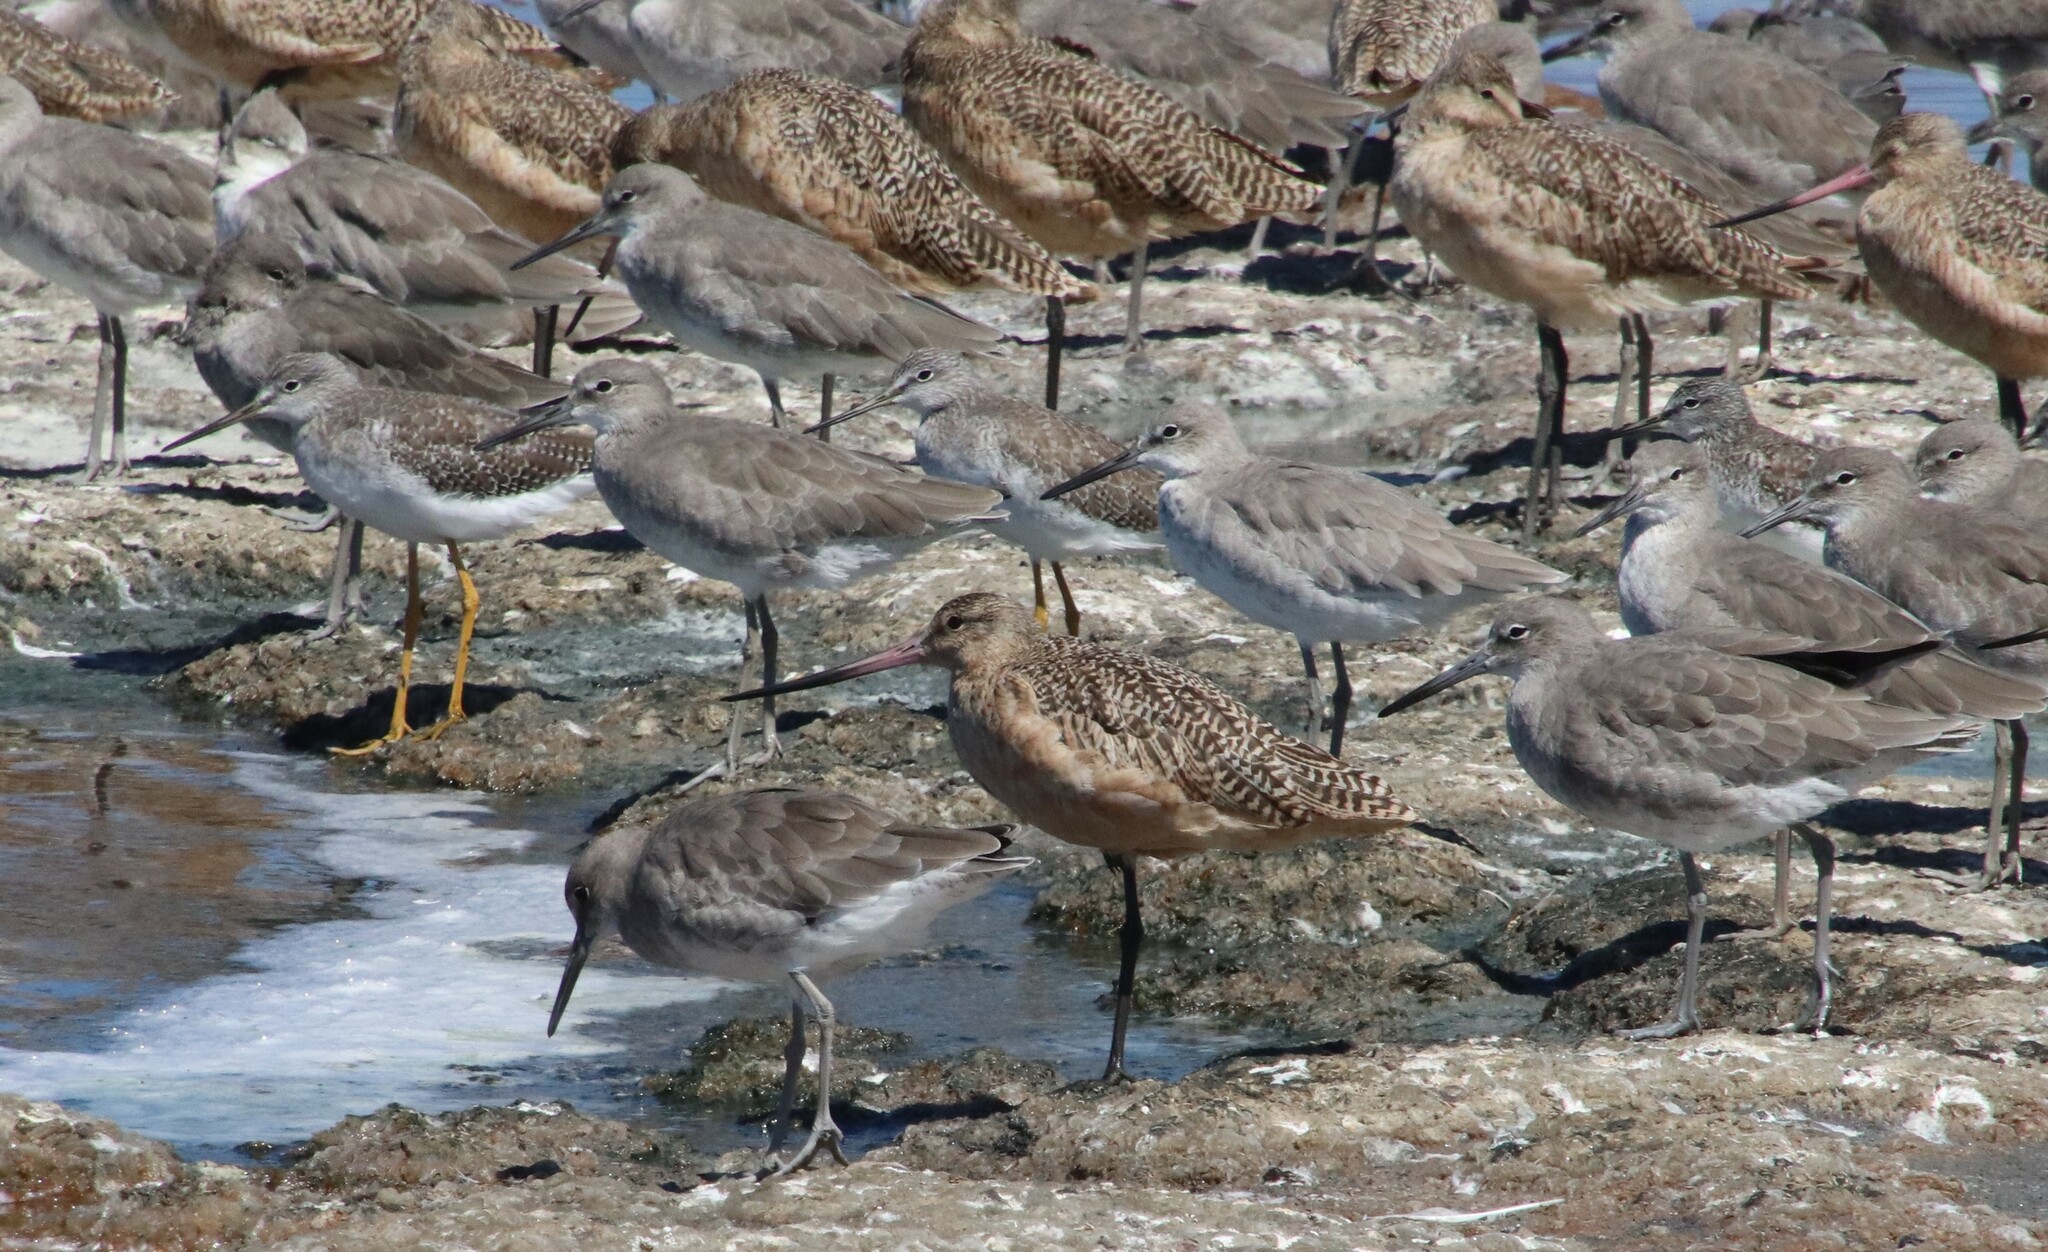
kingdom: Animalia
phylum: Chordata
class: Aves
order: Charadriiformes
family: Scolopacidae
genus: Limosa
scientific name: Limosa fedoa
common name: Marbled godwit
